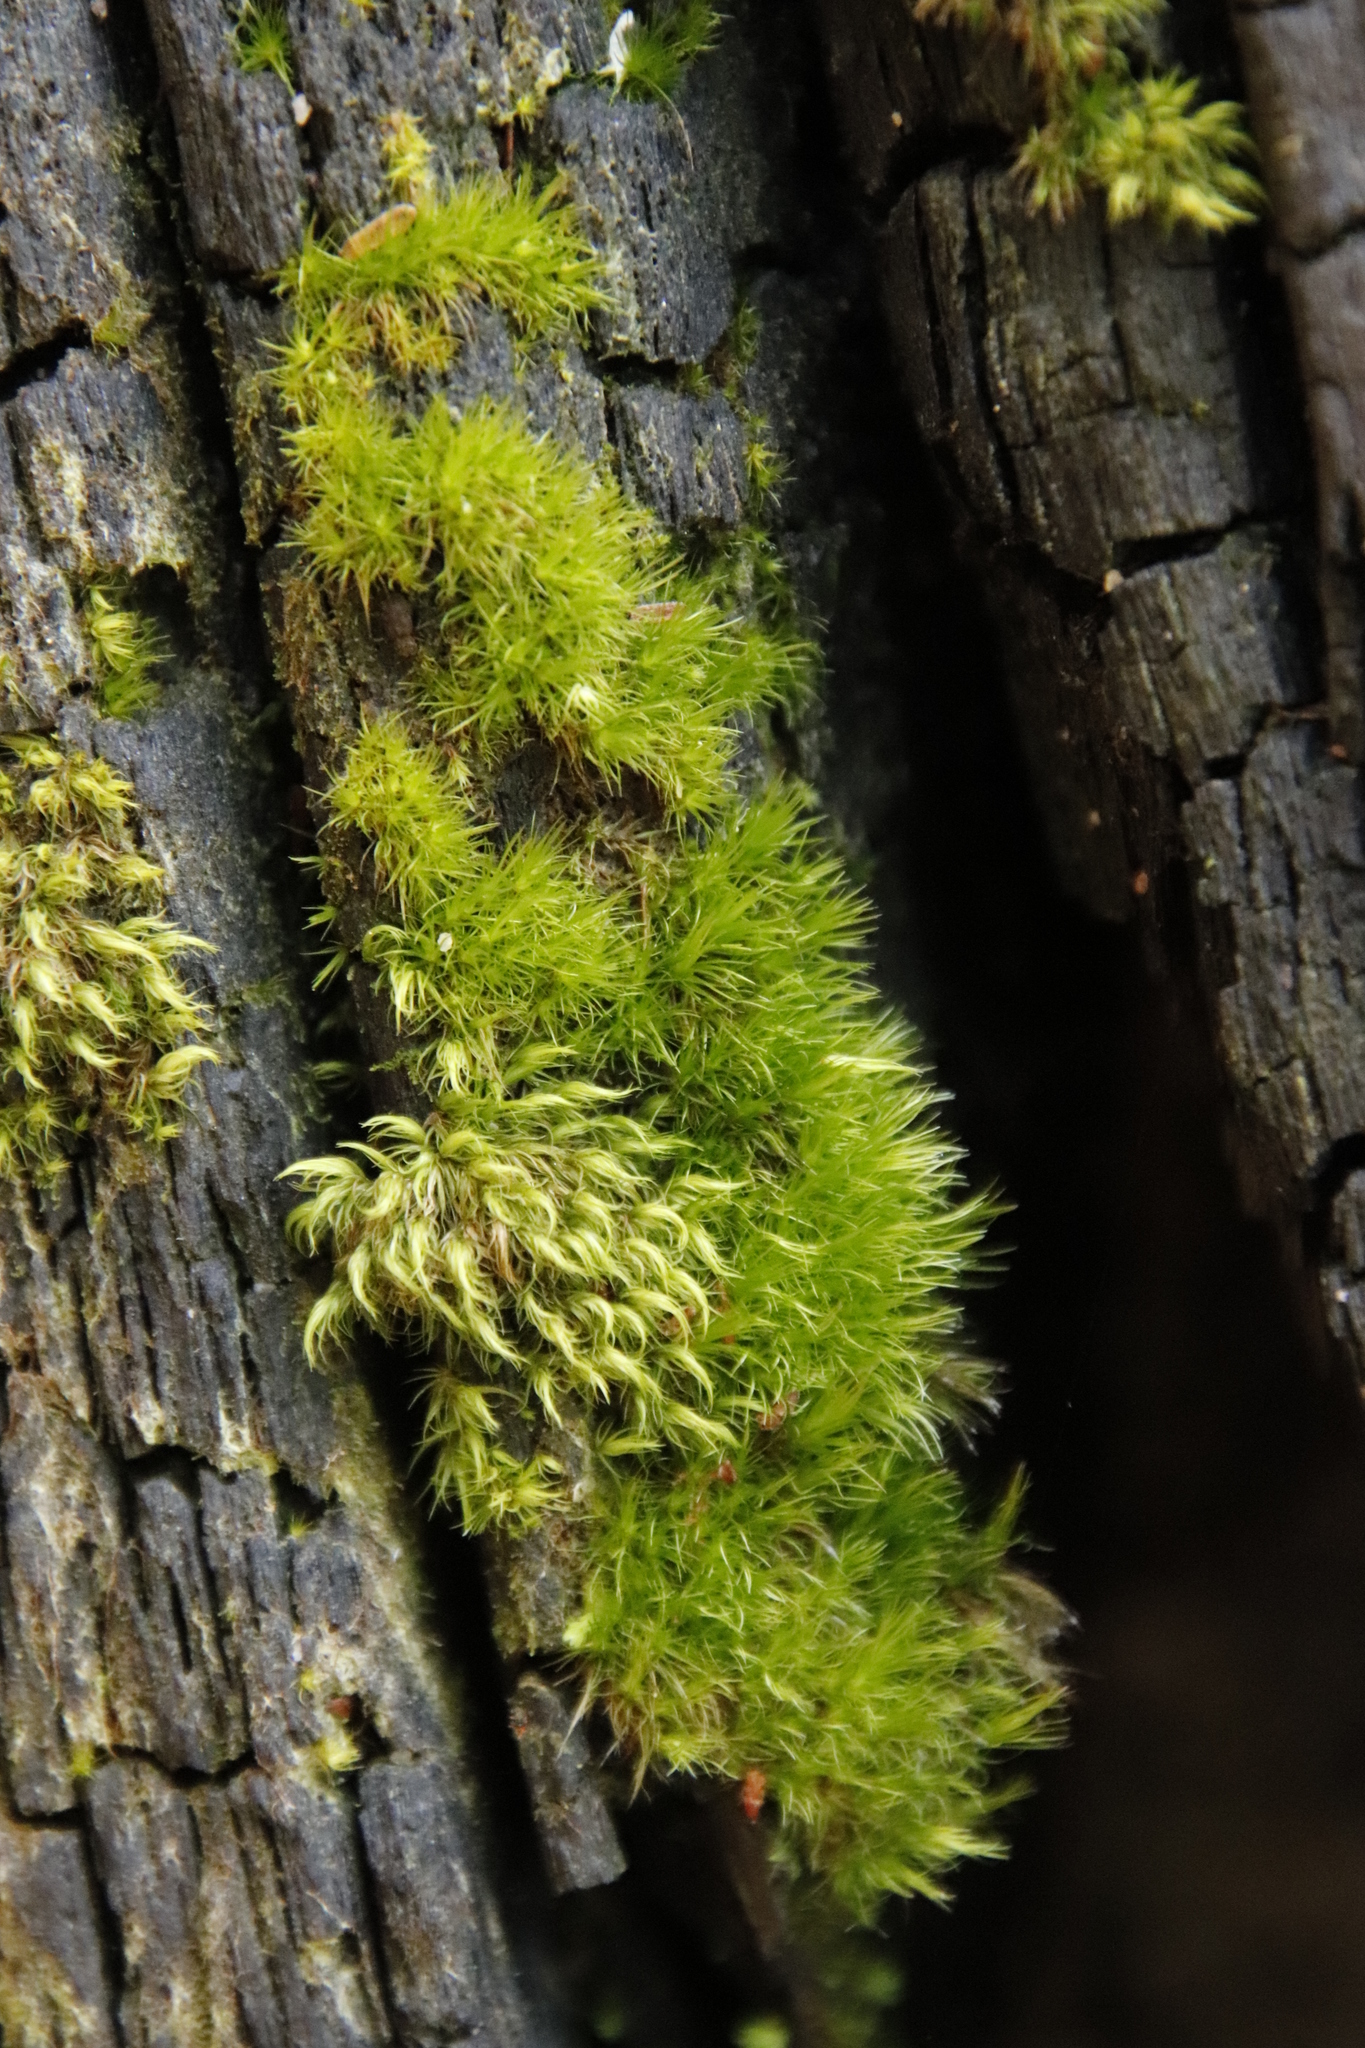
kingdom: Plantae
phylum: Bryophyta
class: Bryopsida
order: Dicranales
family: Leucobryaceae
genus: Campylopus
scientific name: Campylopus thwaitesii
